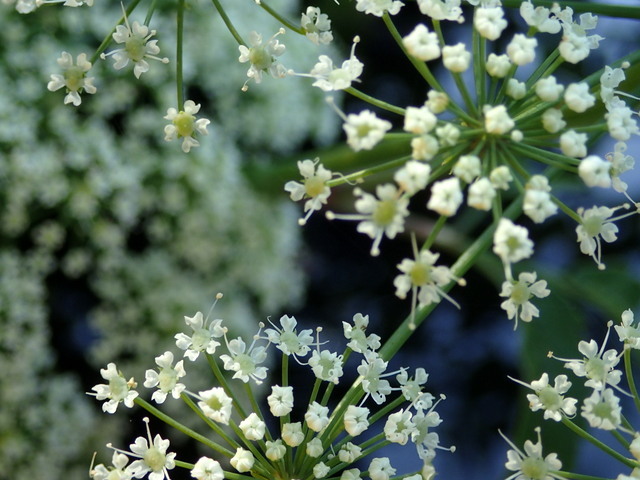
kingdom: Plantae
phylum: Tracheophyta
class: Magnoliopsida
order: Apiales
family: Apiaceae
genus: Cicuta
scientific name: Cicuta maculata
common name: Spotted cowbane
